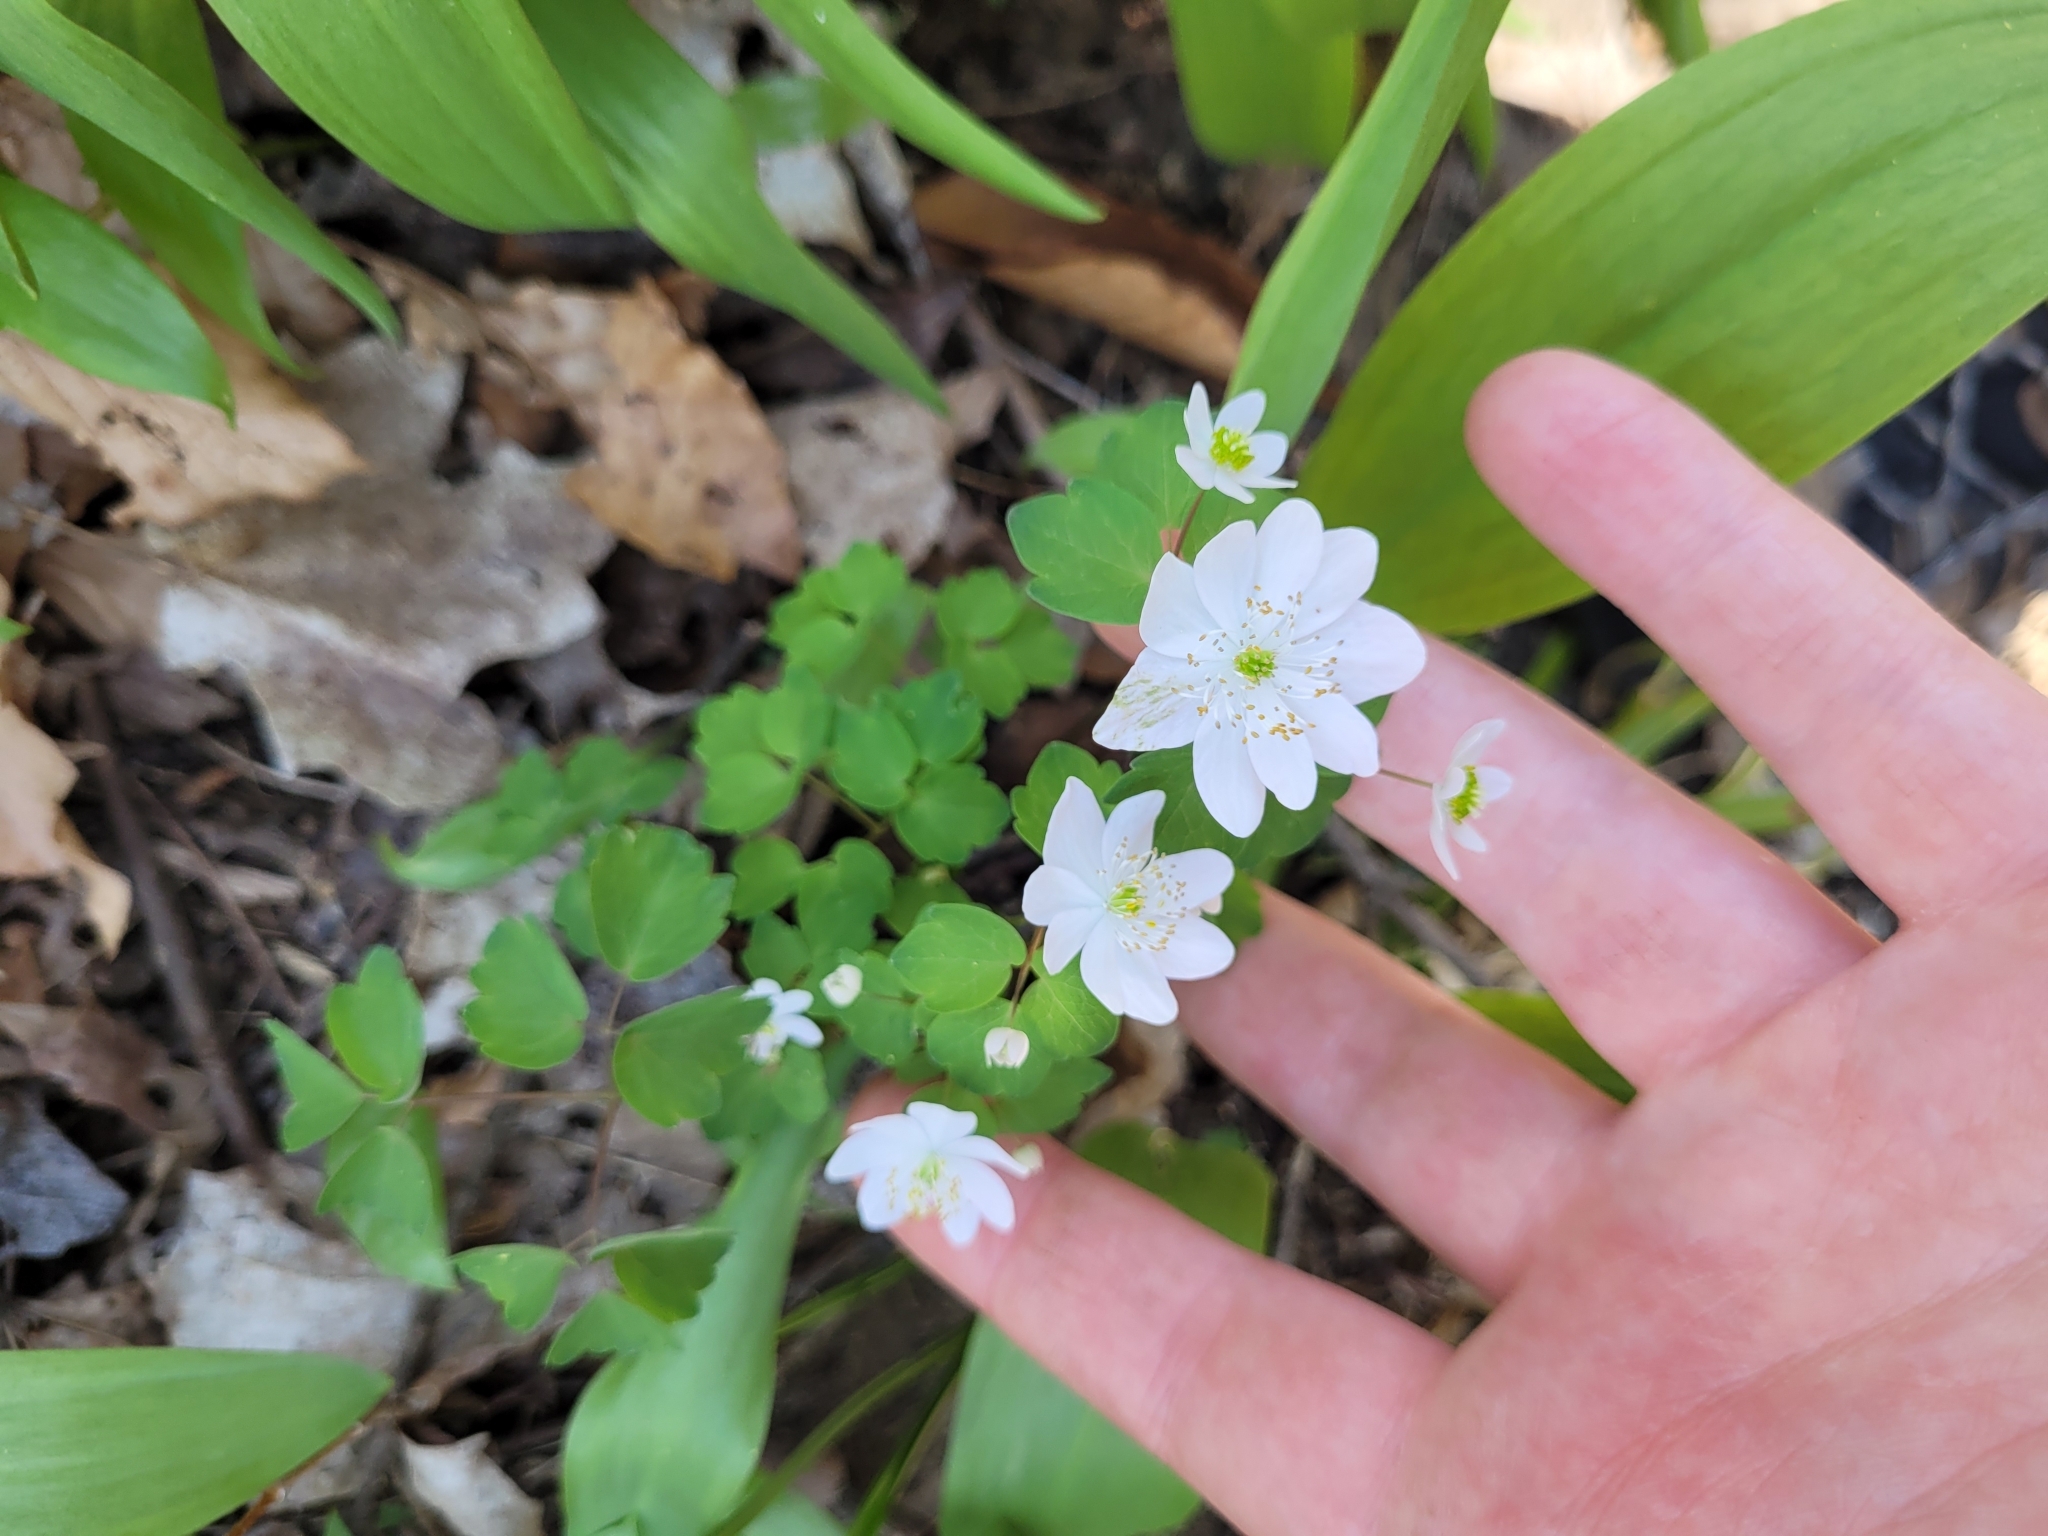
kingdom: Plantae
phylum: Tracheophyta
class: Magnoliopsida
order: Ranunculales
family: Ranunculaceae
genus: Thalictrum
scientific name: Thalictrum thalictroides
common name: Rue-anemone
